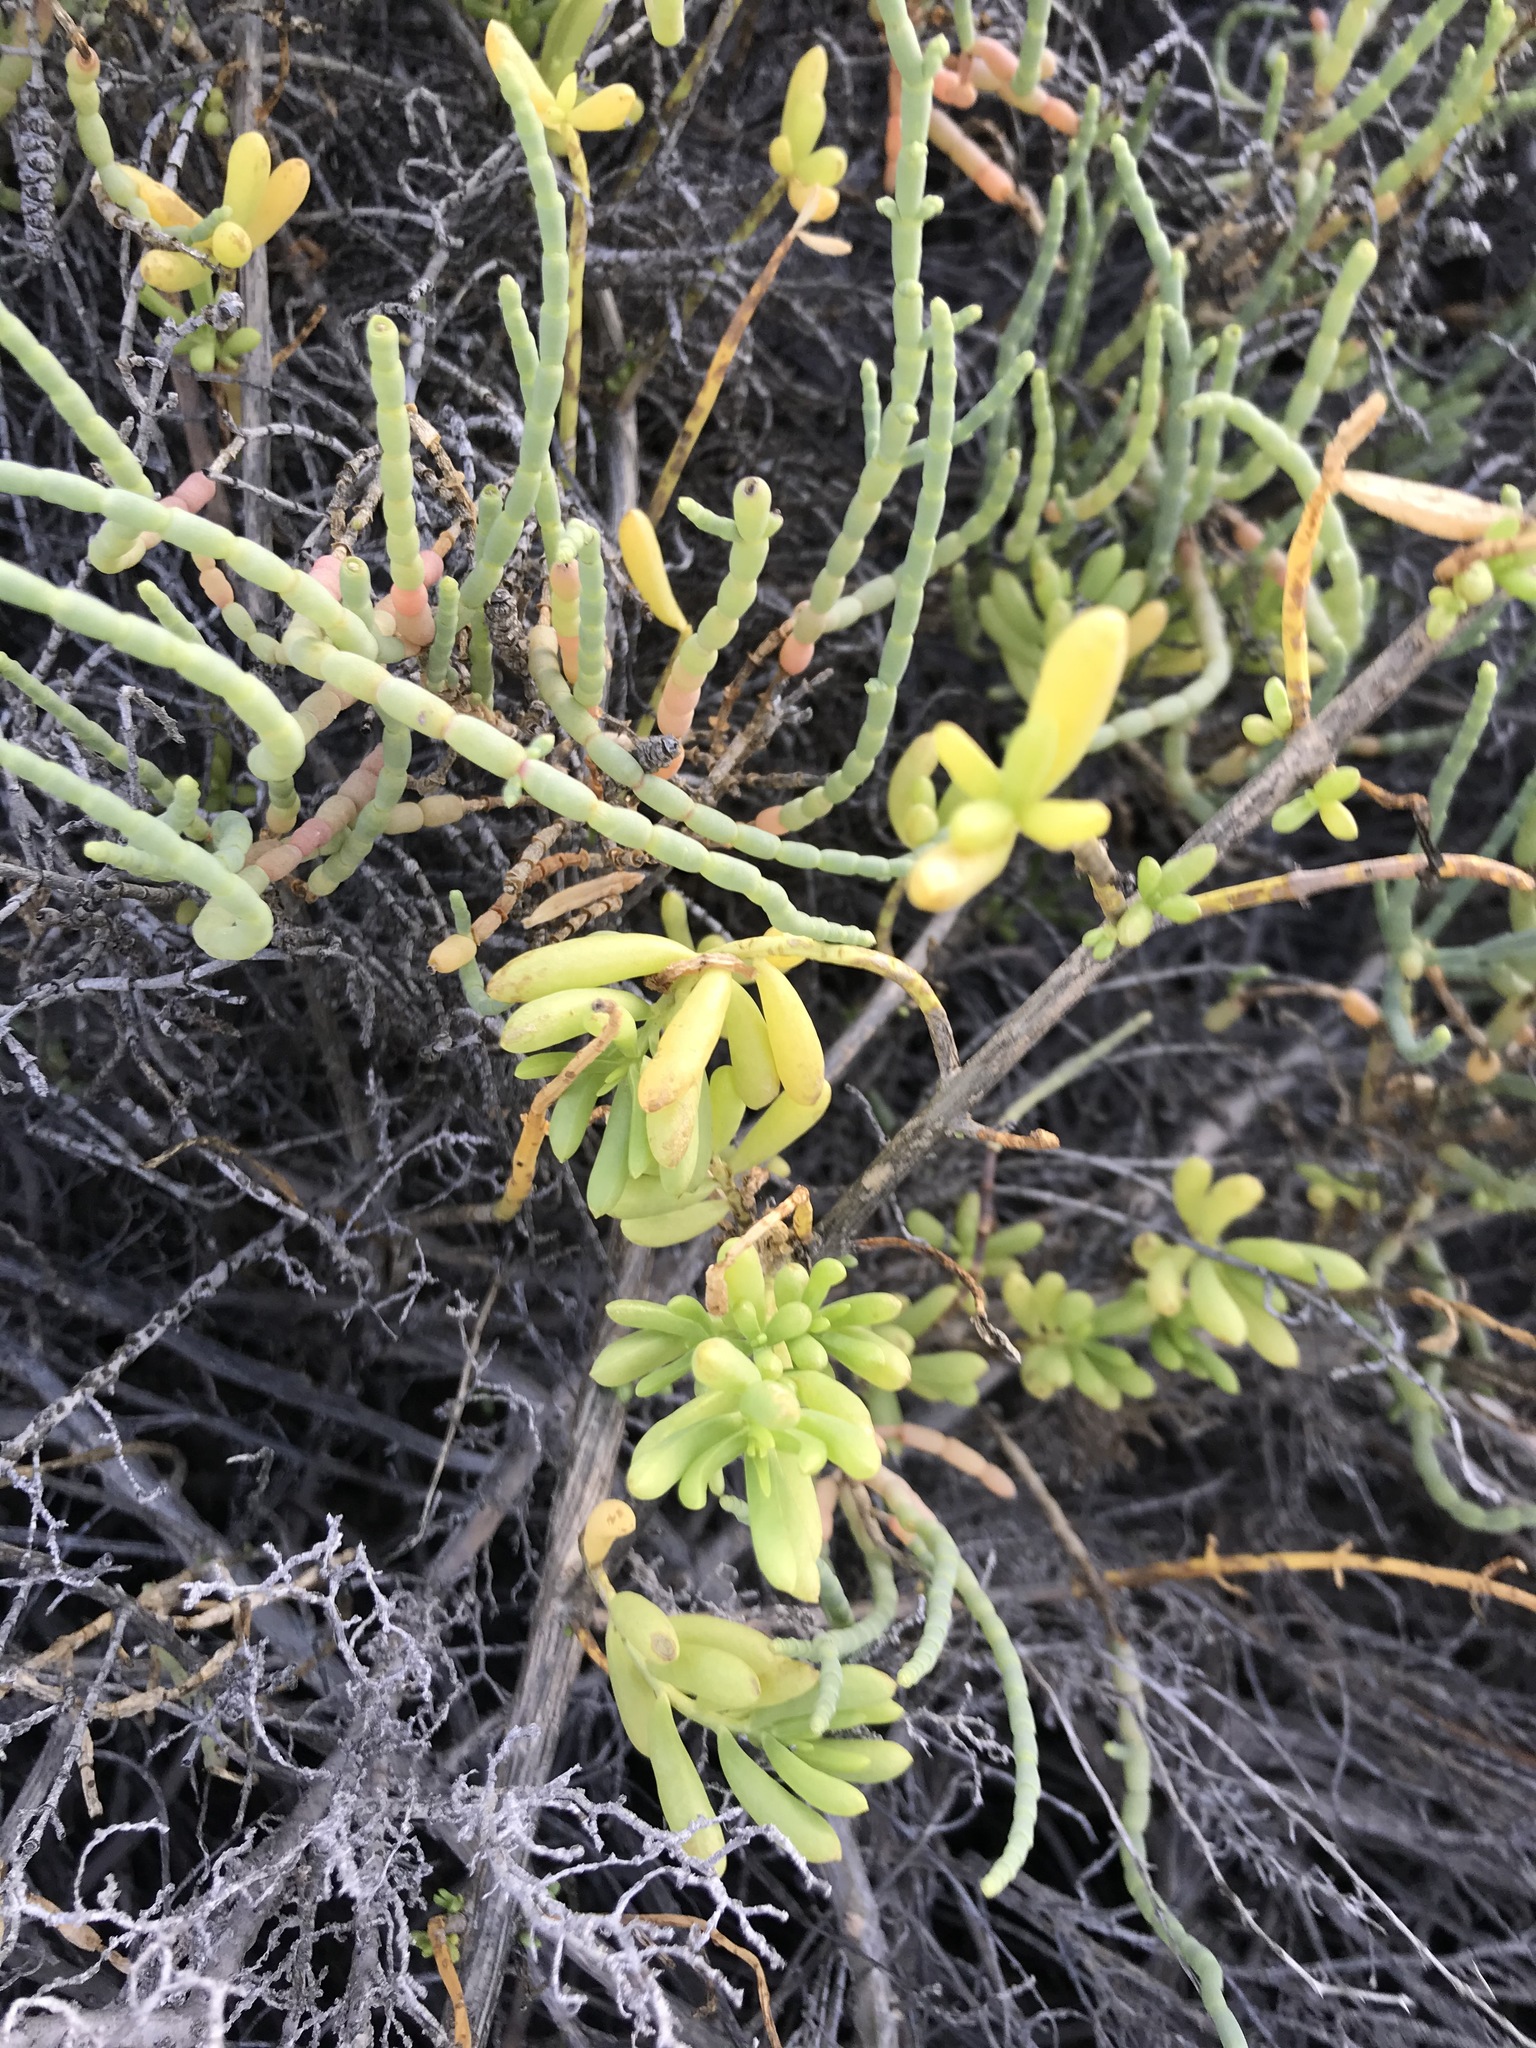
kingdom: Plantae
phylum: Tracheophyta
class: Magnoliopsida
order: Brassicales
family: Bataceae
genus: Batis
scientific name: Batis maritima
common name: Turtleweed
